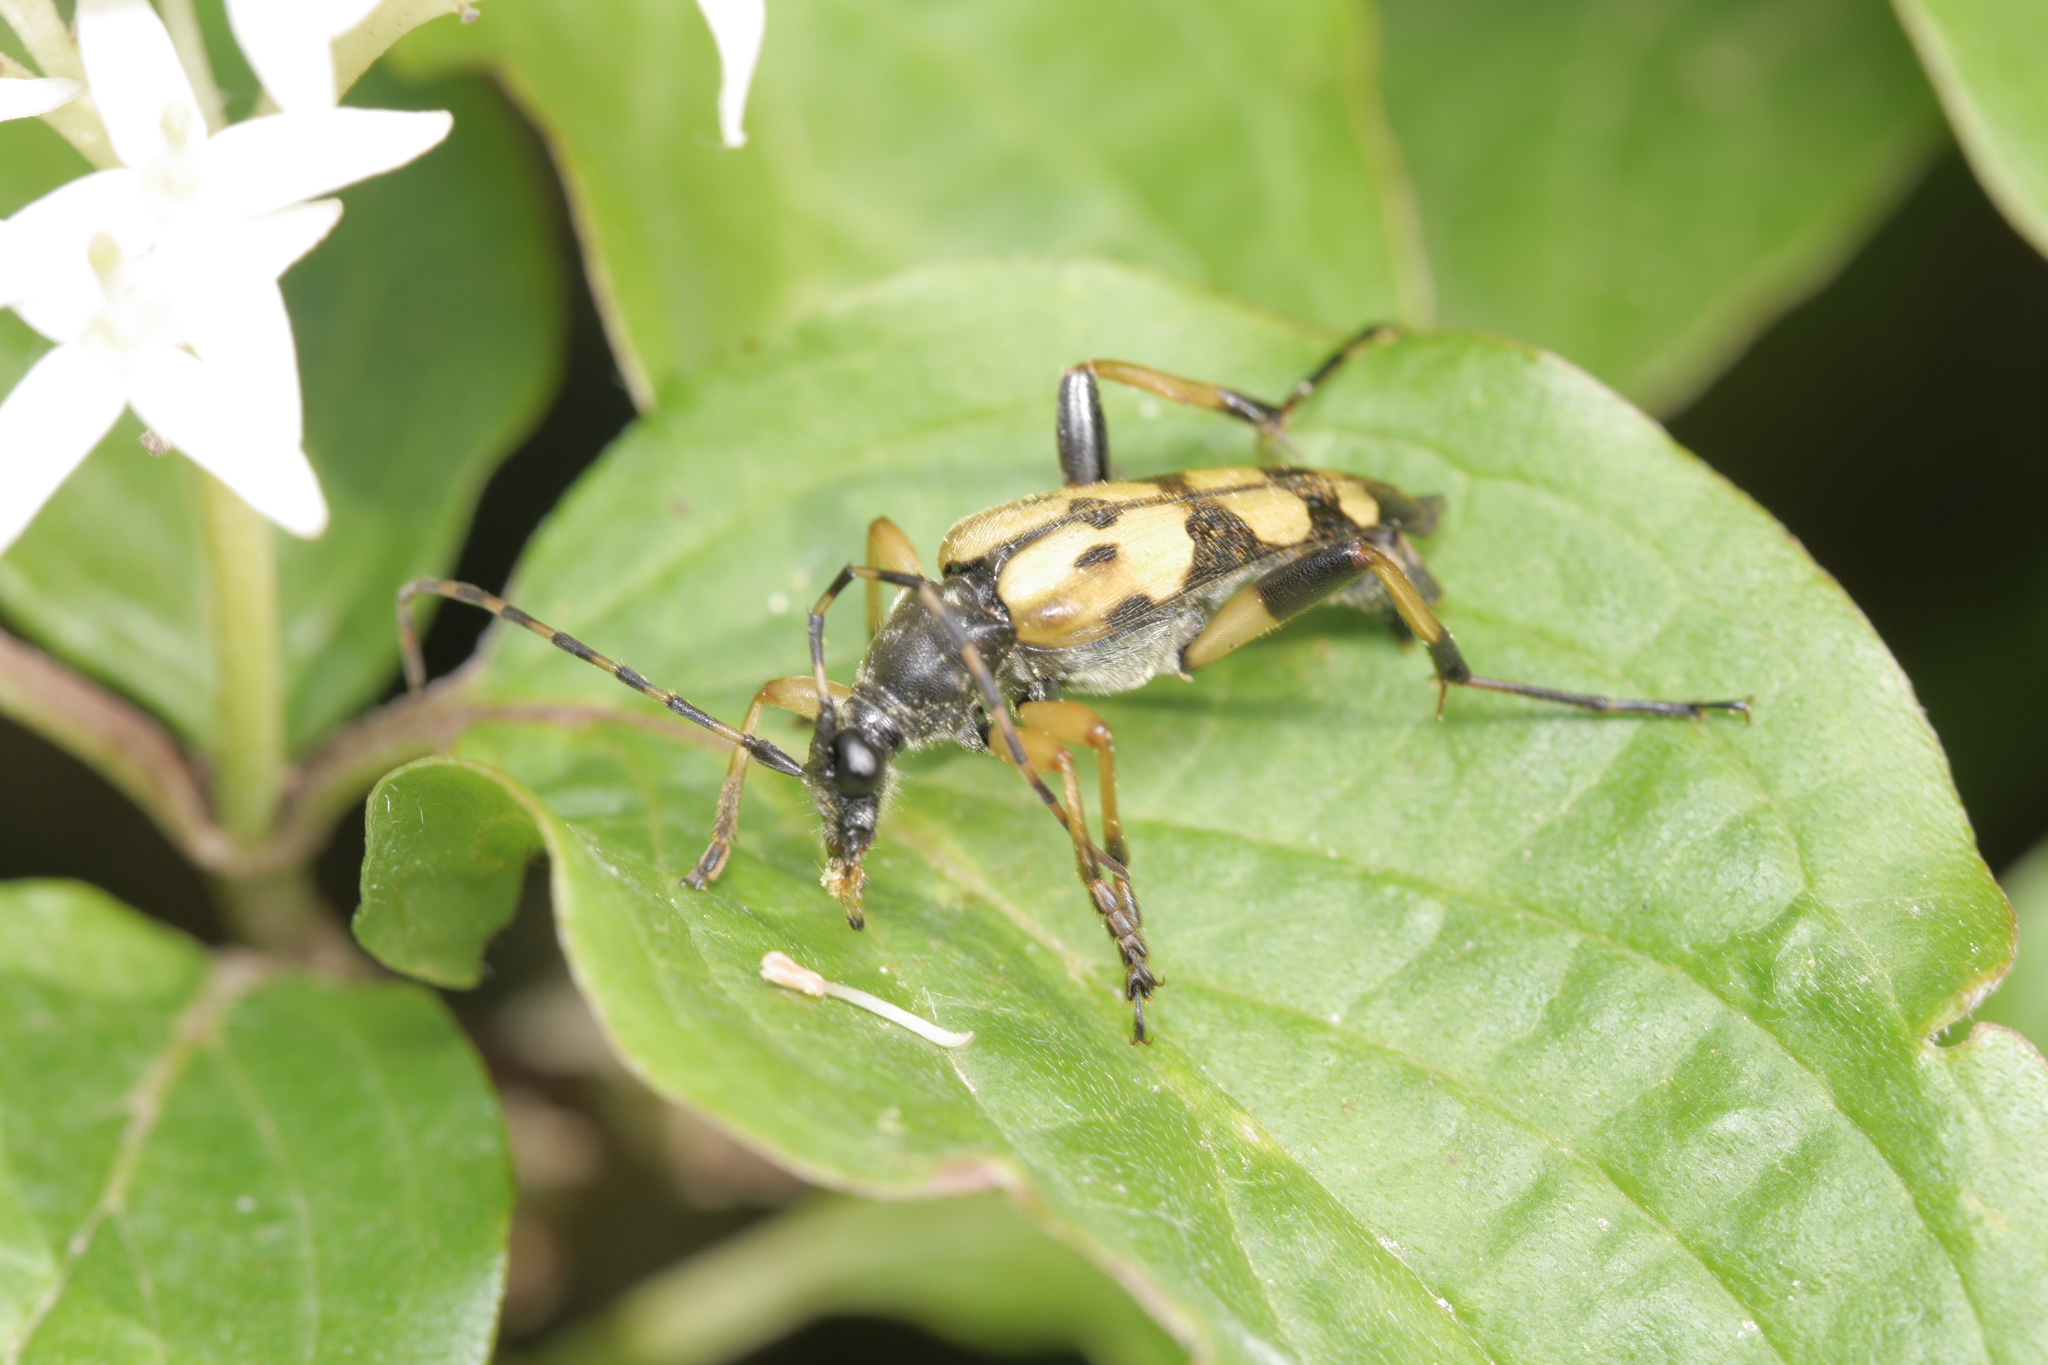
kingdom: Animalia
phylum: Arthropoda
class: Insecta
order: Coleoptera
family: Cerambycidae
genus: Rutpela
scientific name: Rutpela maculata
